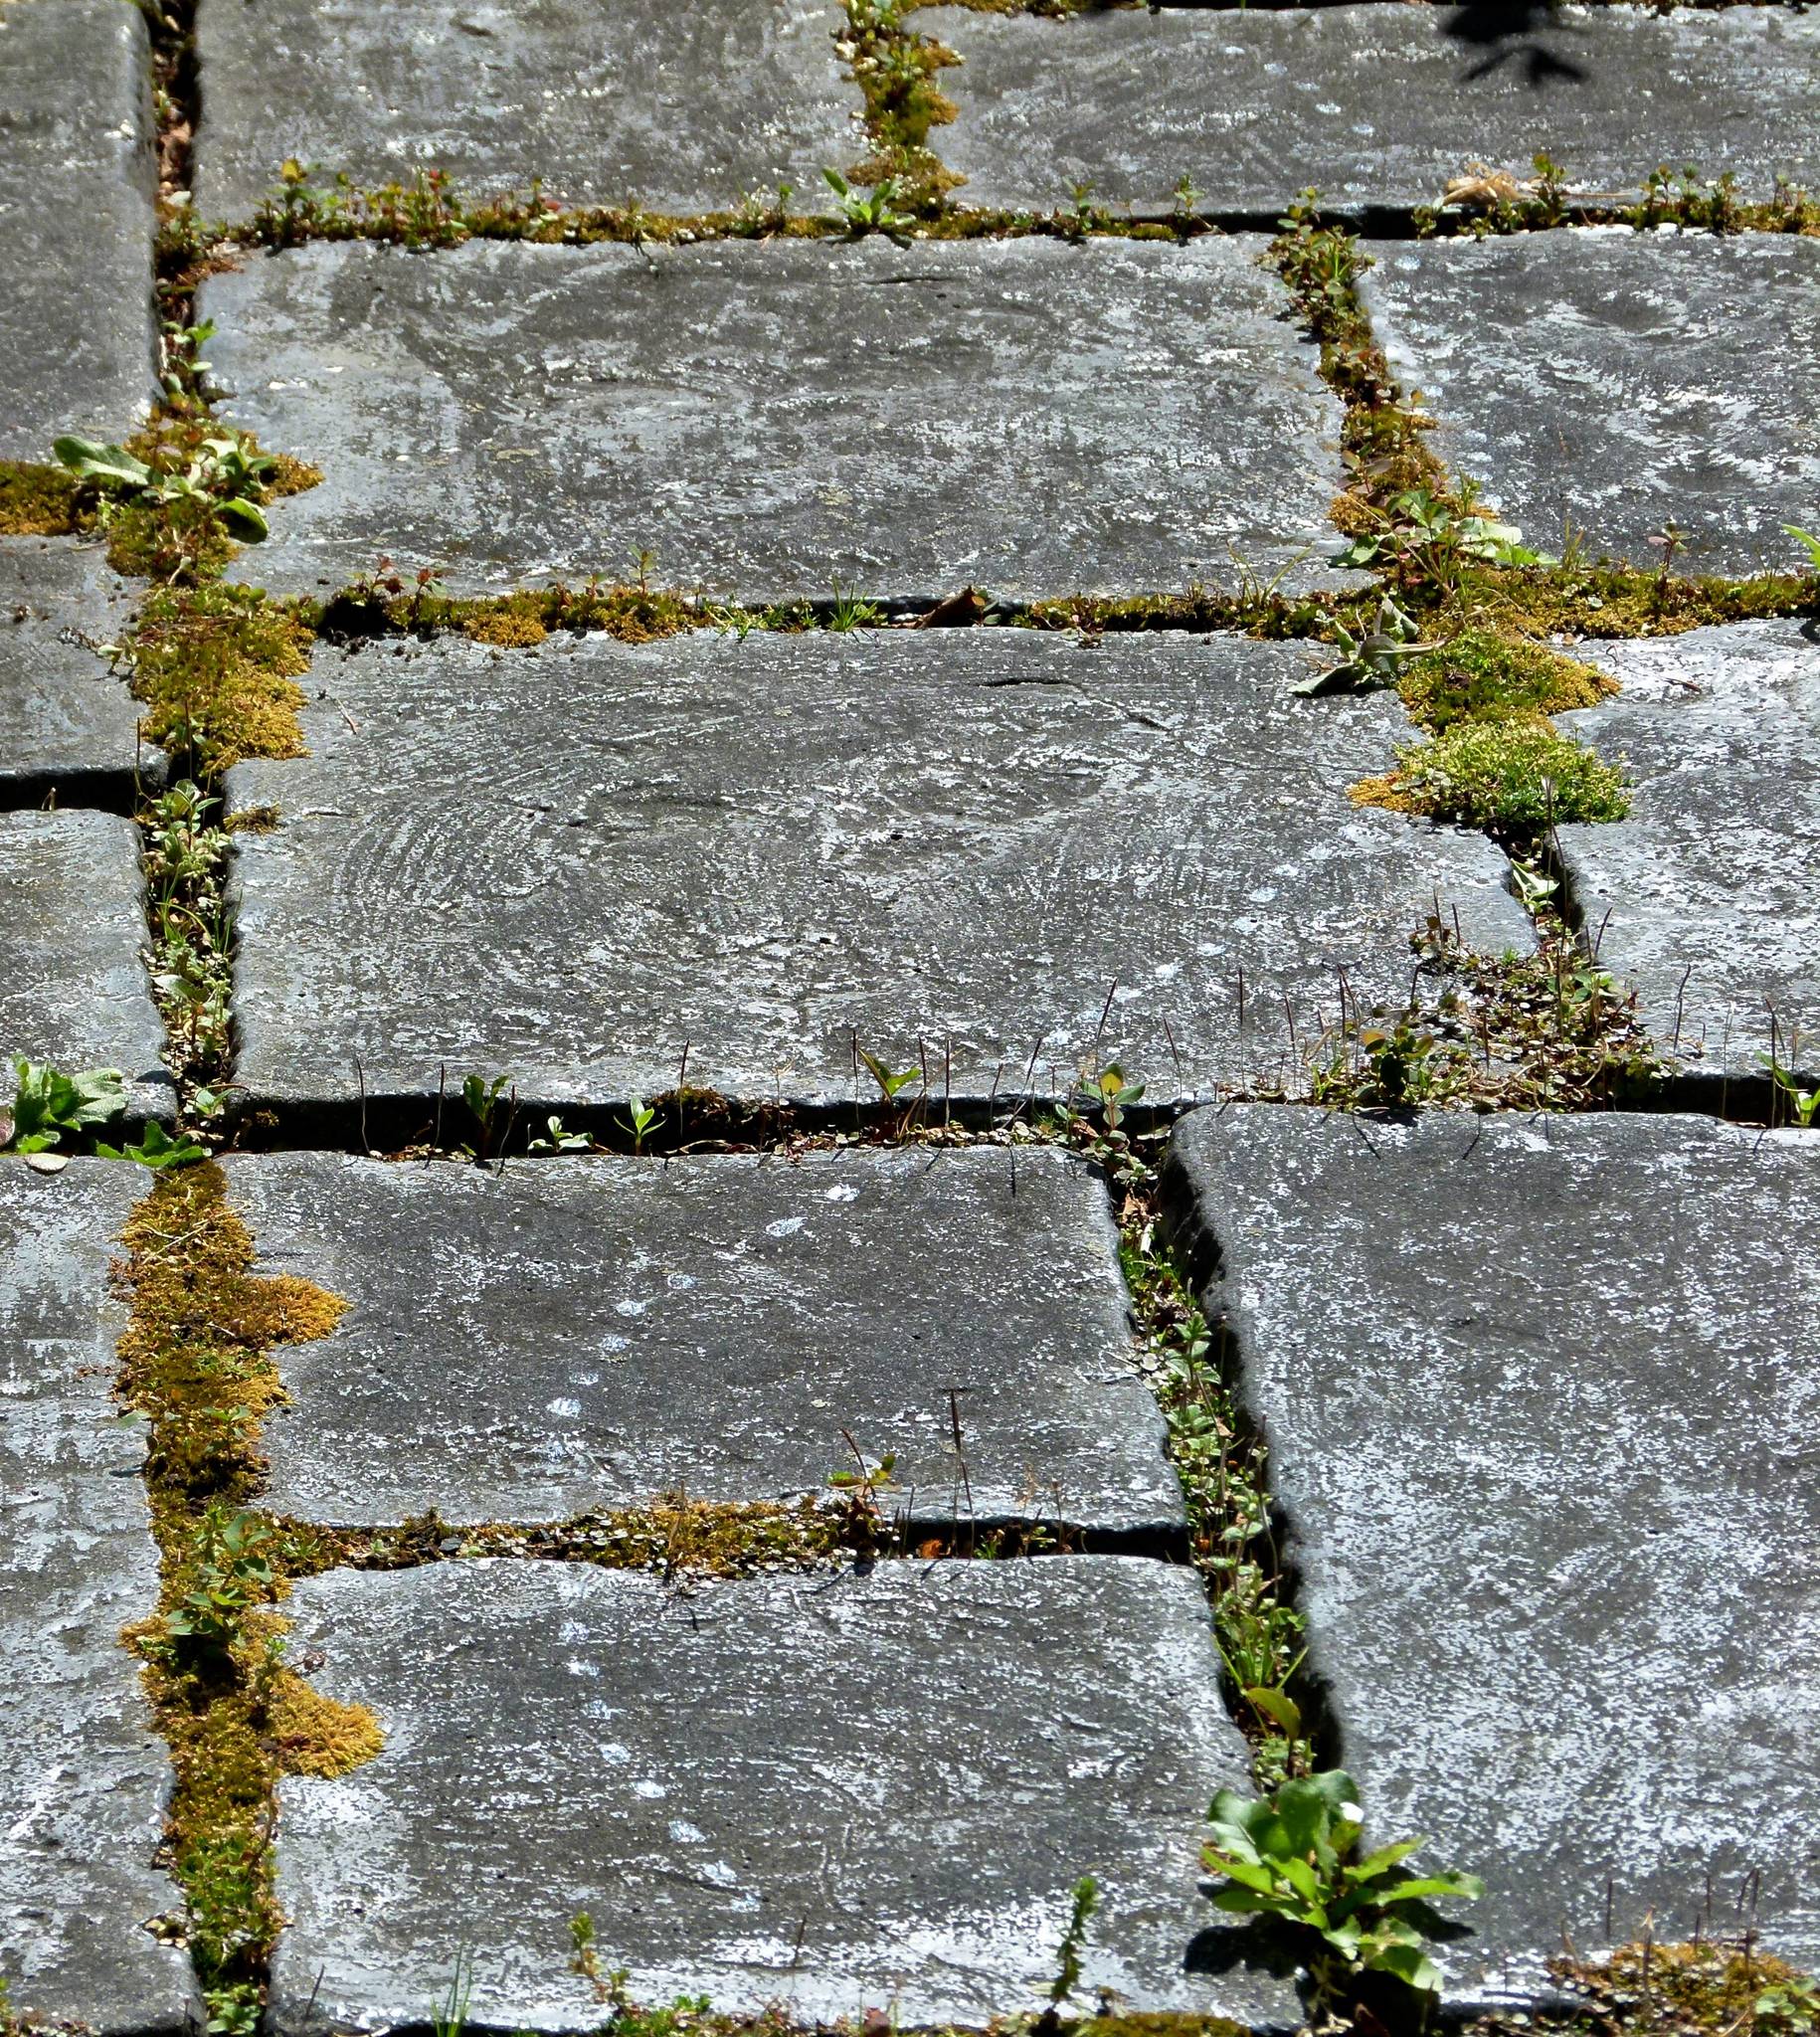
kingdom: Animalia
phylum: Mollusca
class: Gastropoda
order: Stylommatophora
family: Helicidae
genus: Cornu
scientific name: Cornu aspersum
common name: Brown garden snail
